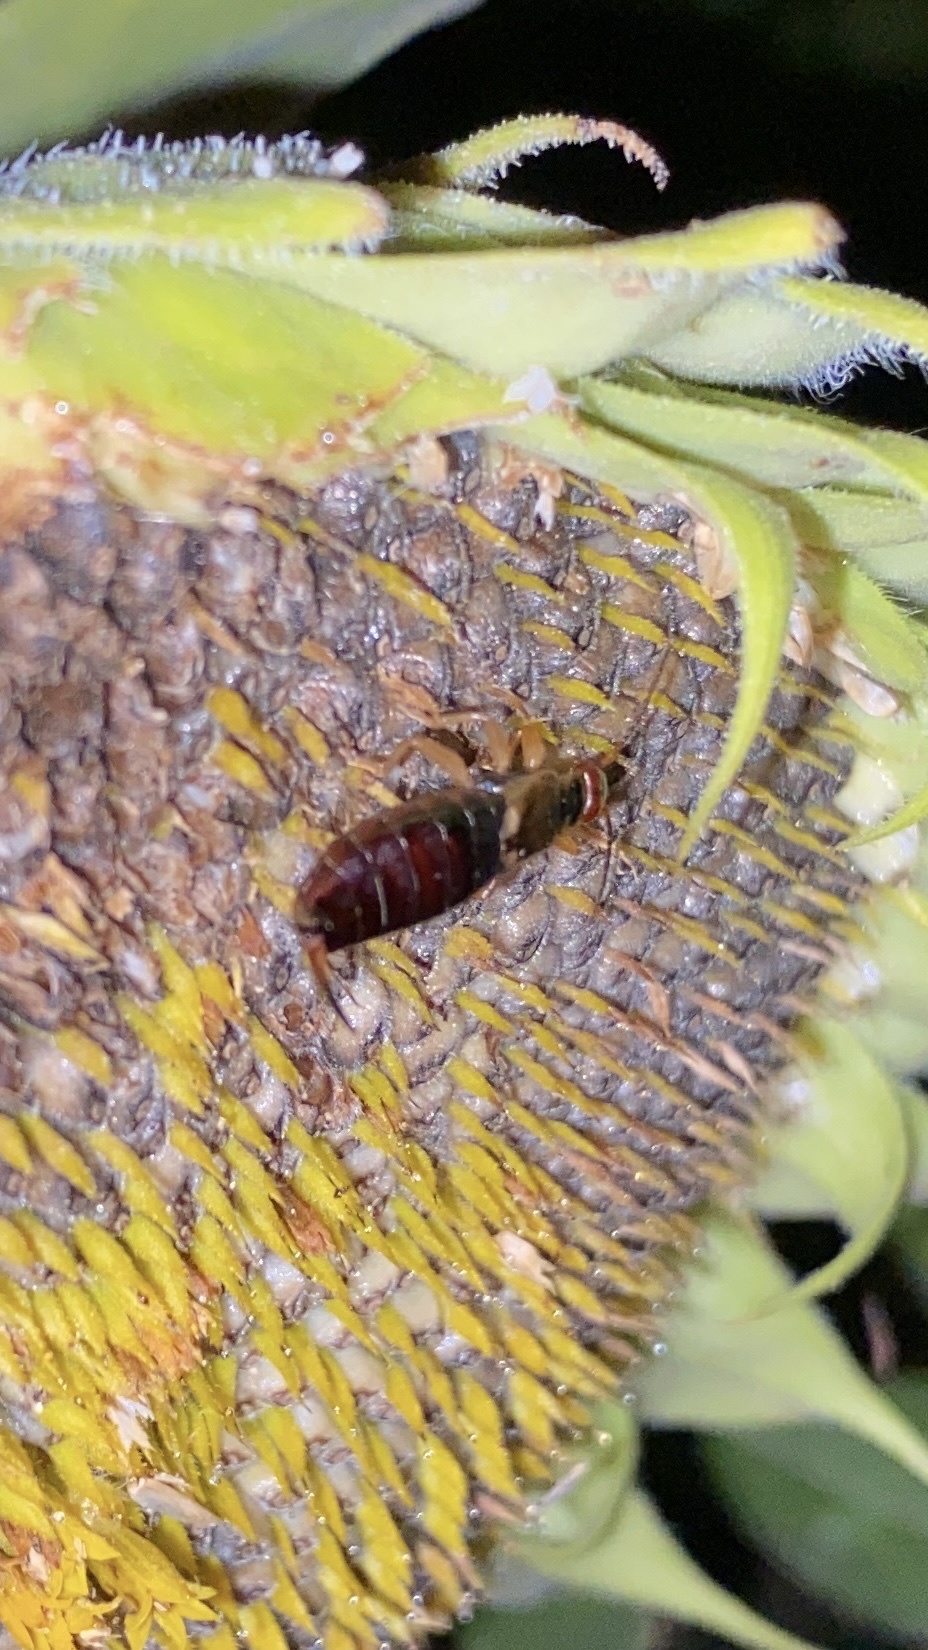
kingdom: Animalia
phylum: Arthropoda
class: Insecta
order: Dermaptera
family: Forficulidae
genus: Forficula
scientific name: Forficula
